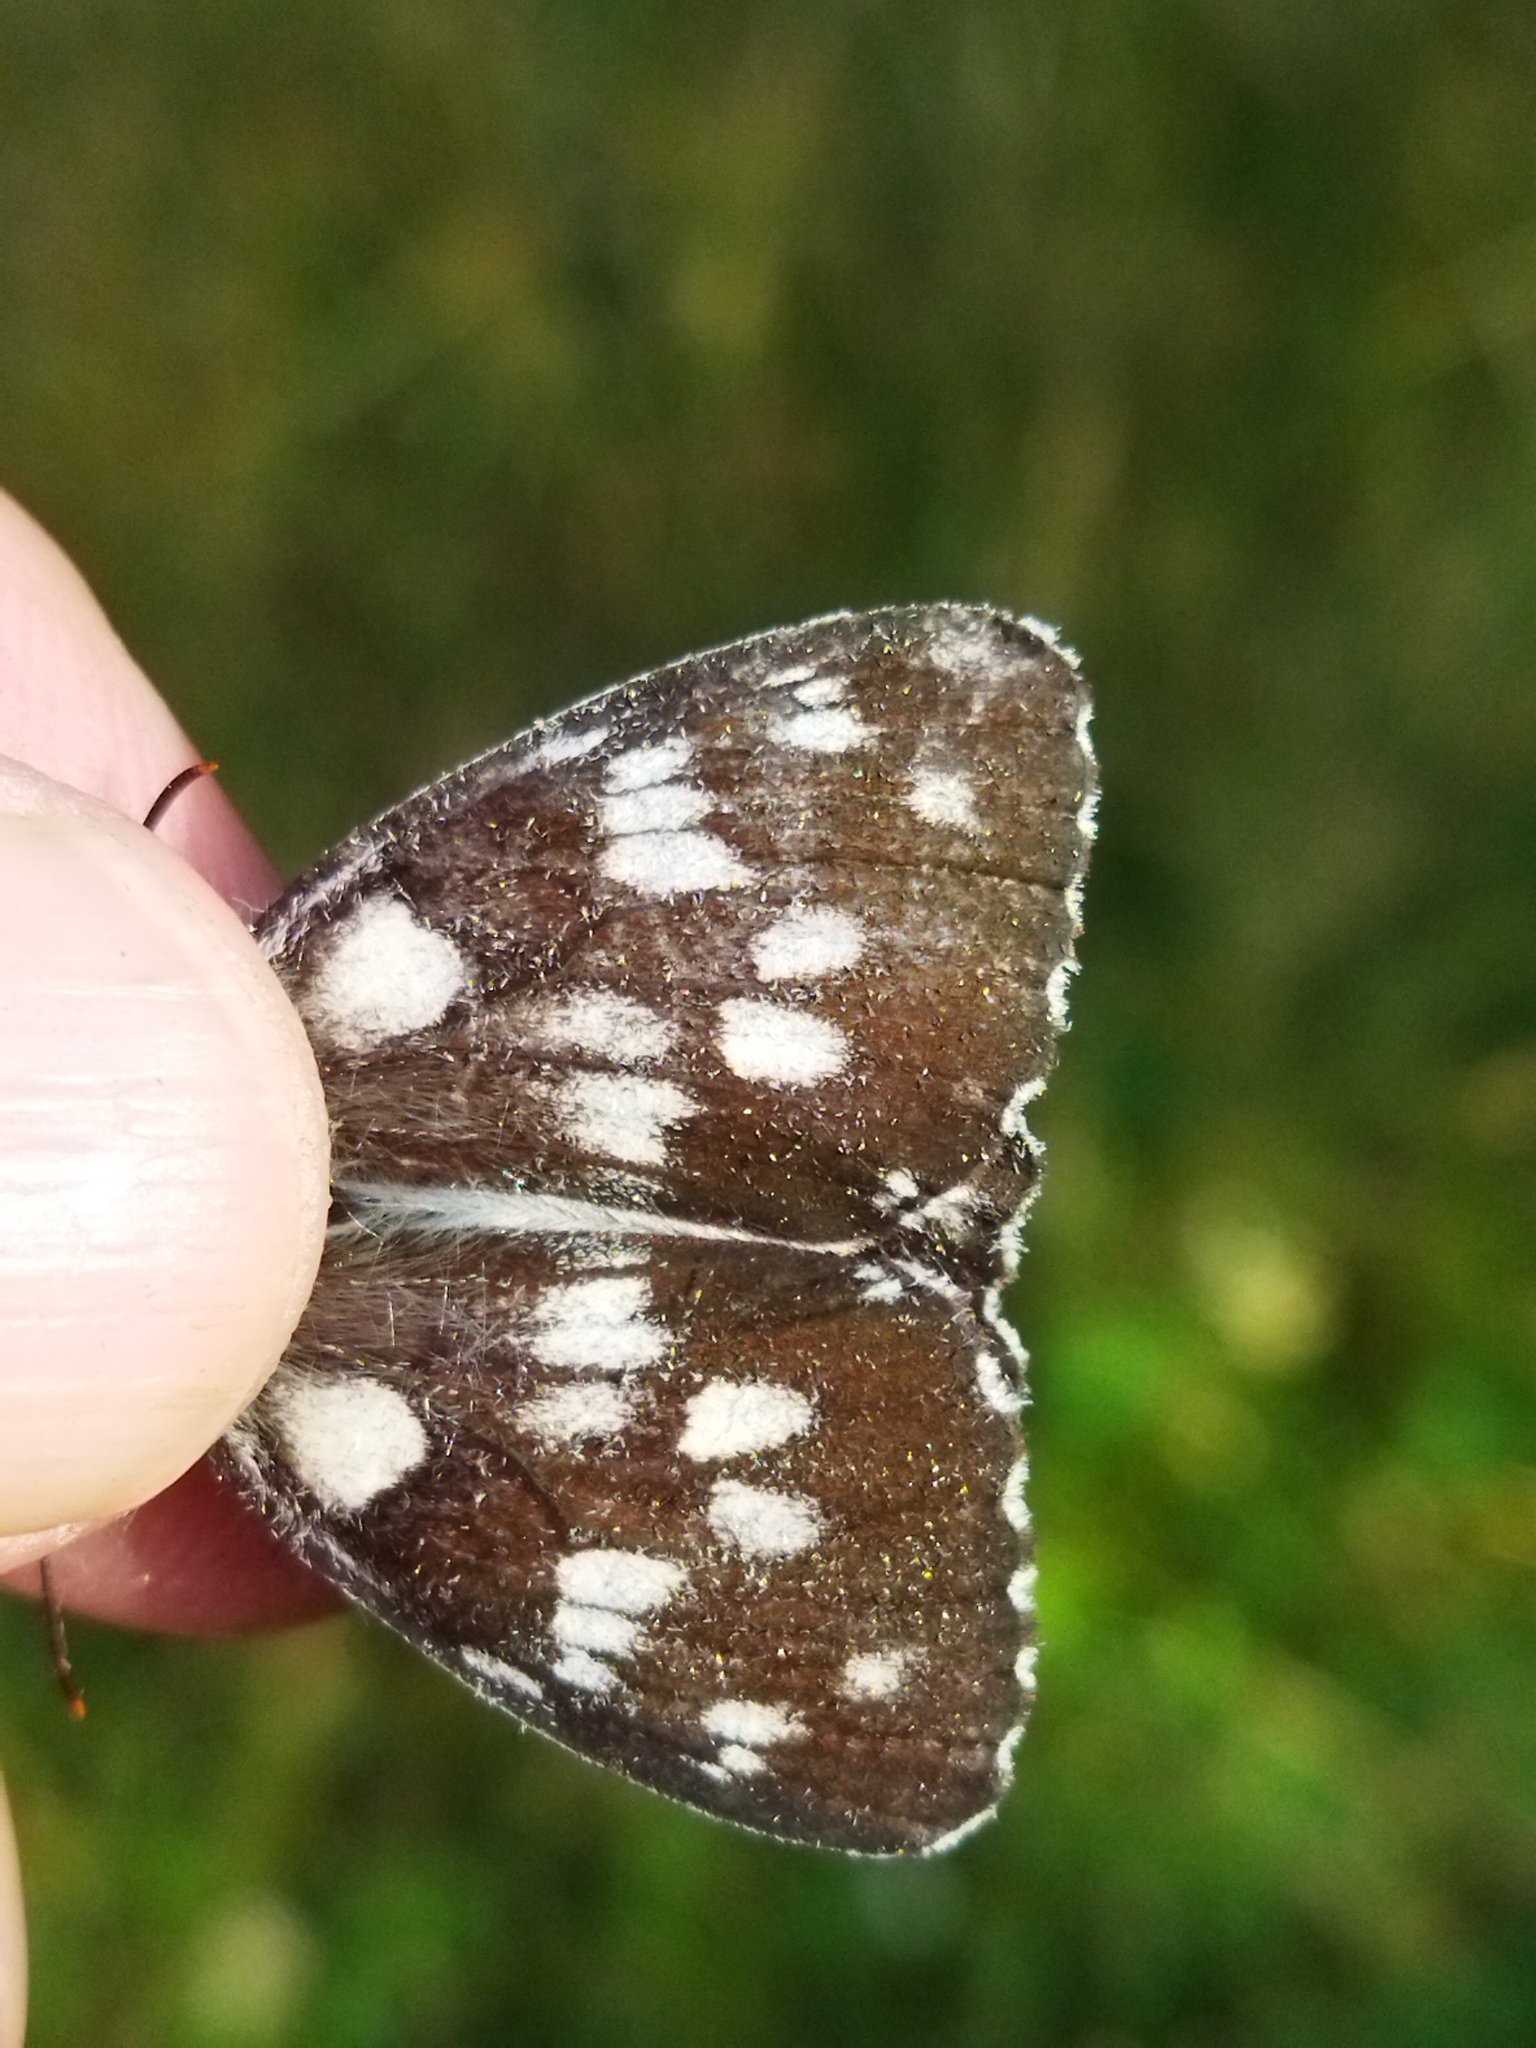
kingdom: Animalia
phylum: Arthropoda
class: Insecta
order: Lepidoptera
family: Nymphalidae
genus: Melanargia
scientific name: Melanargia galathea
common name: Marbled white
